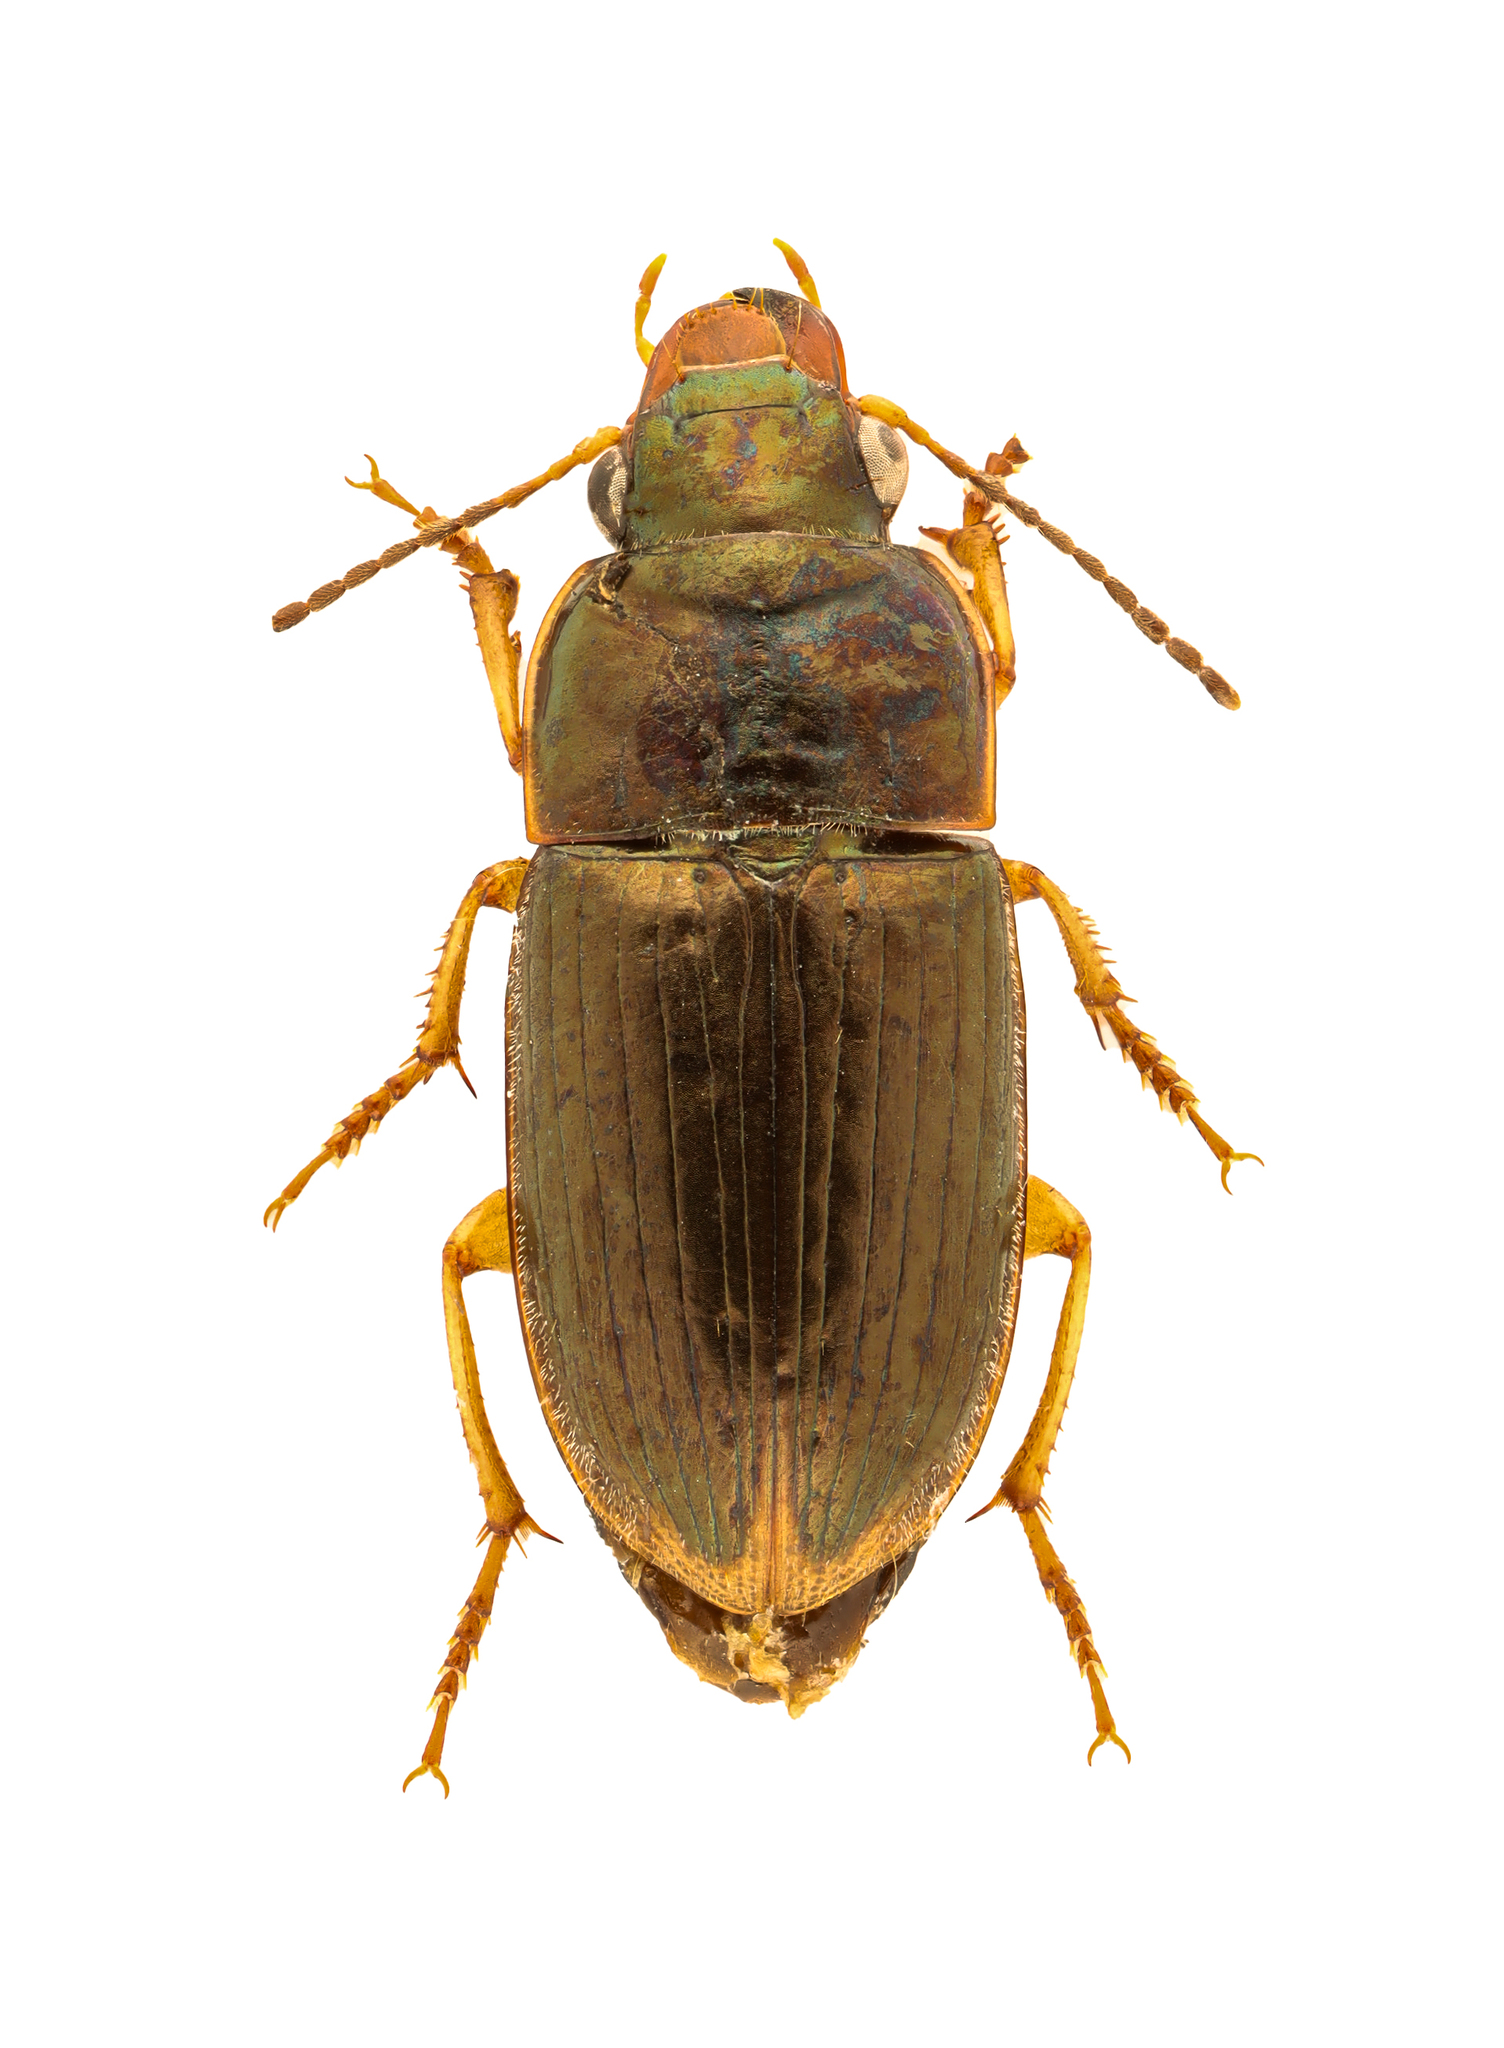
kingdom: Animalia
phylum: Arthropoda
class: Insecta
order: Coleoptera
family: Carabidae
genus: Selenophorus
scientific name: Selenophorus alternans
